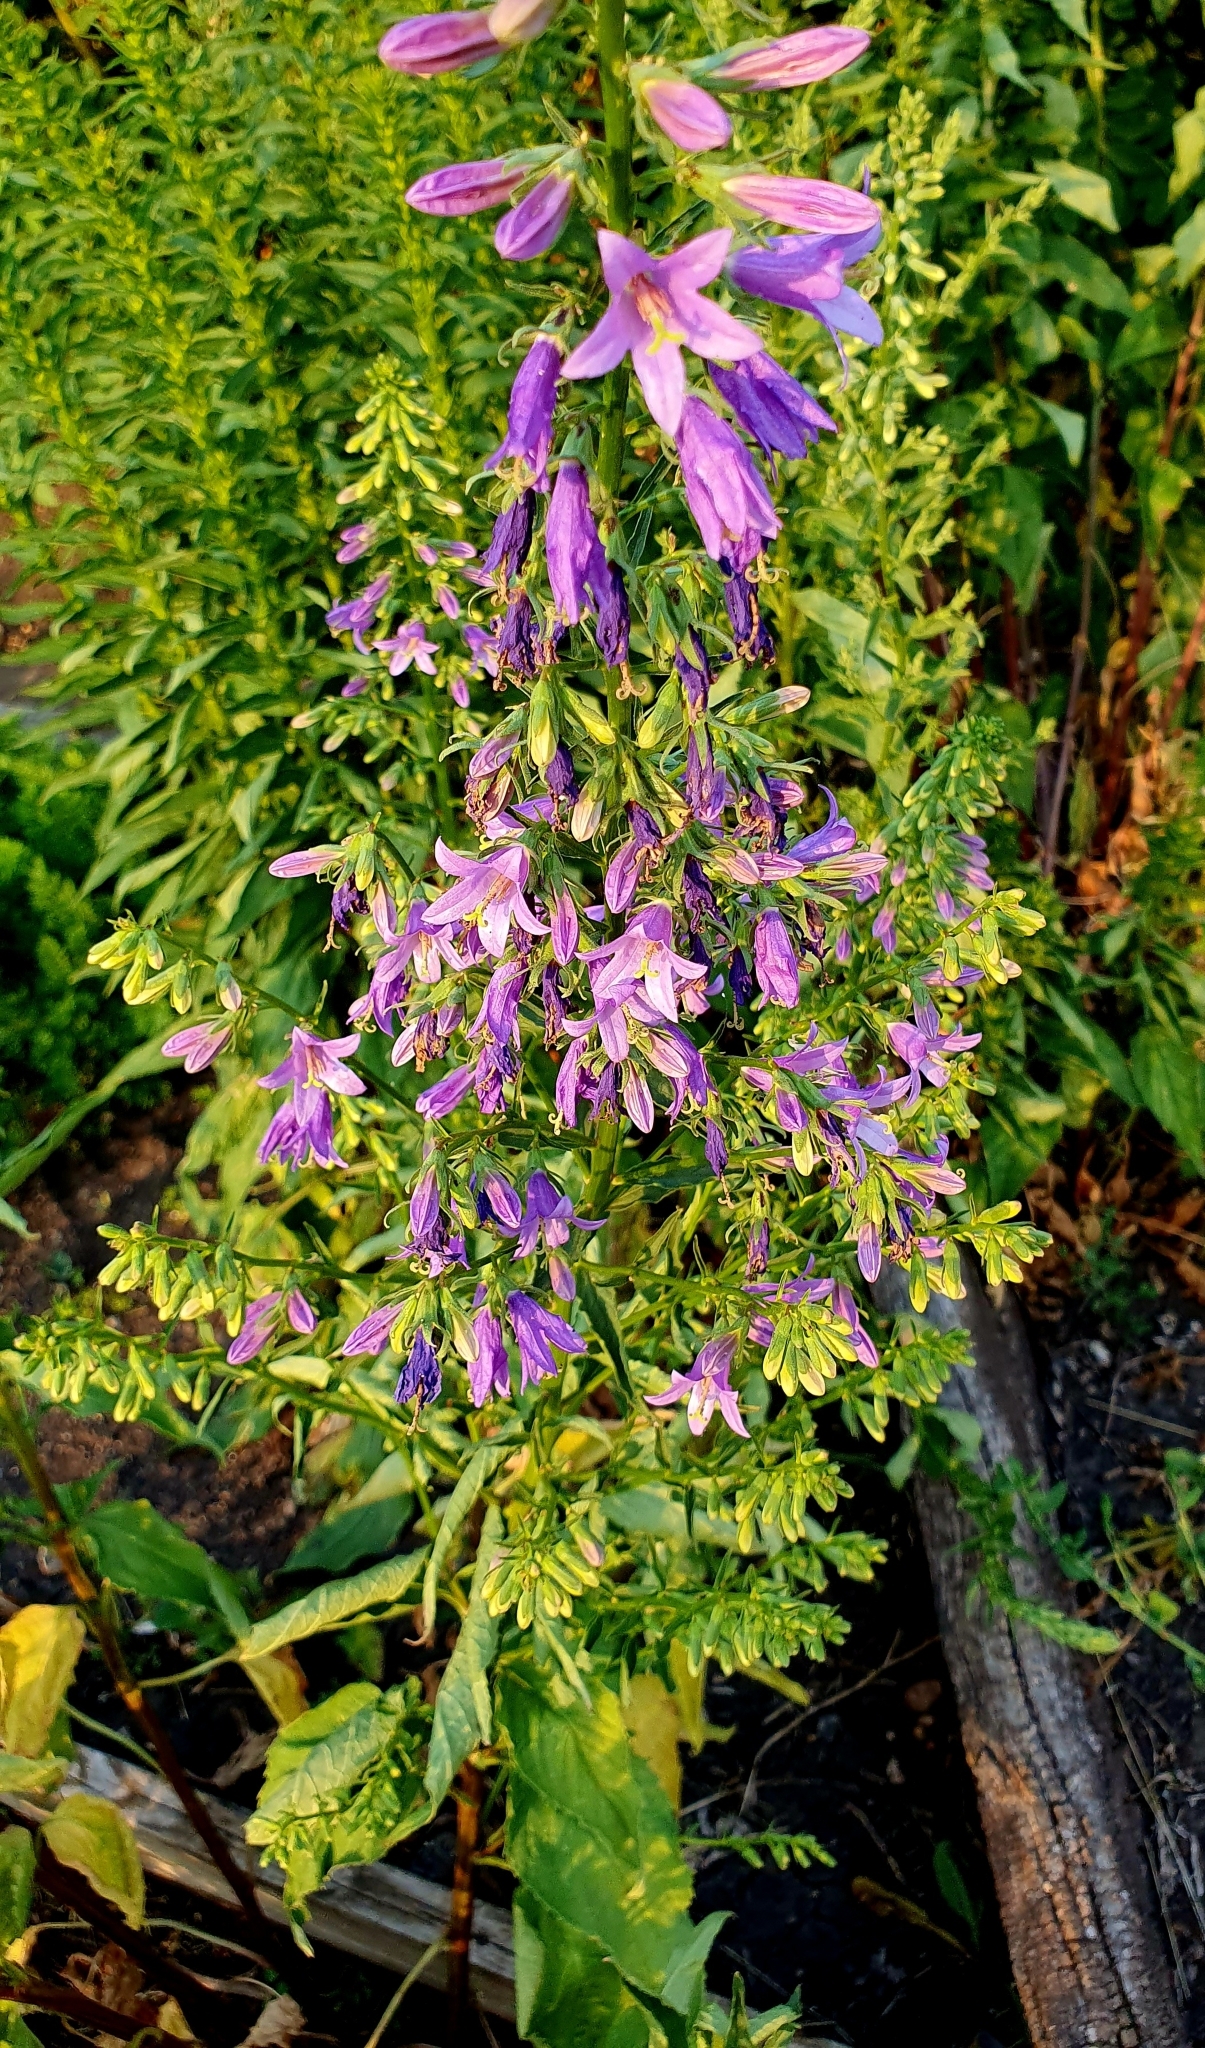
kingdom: Plantae
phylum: Tracheophyta
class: Magnoliopsida
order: Asterales
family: Campanulaceae
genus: Campanula
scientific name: Campanula rapunculoides
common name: Creeping bellflower
